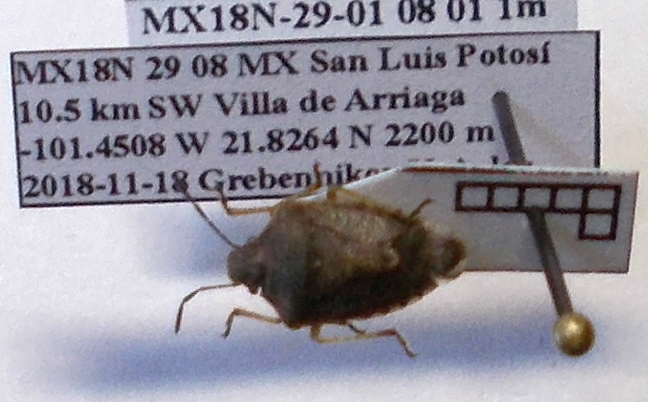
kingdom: Animalia
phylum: Arthropoda
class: Insecta
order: Hemiptera
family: Pentatomidae
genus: Moromorpha
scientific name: Moromorpha tetra
